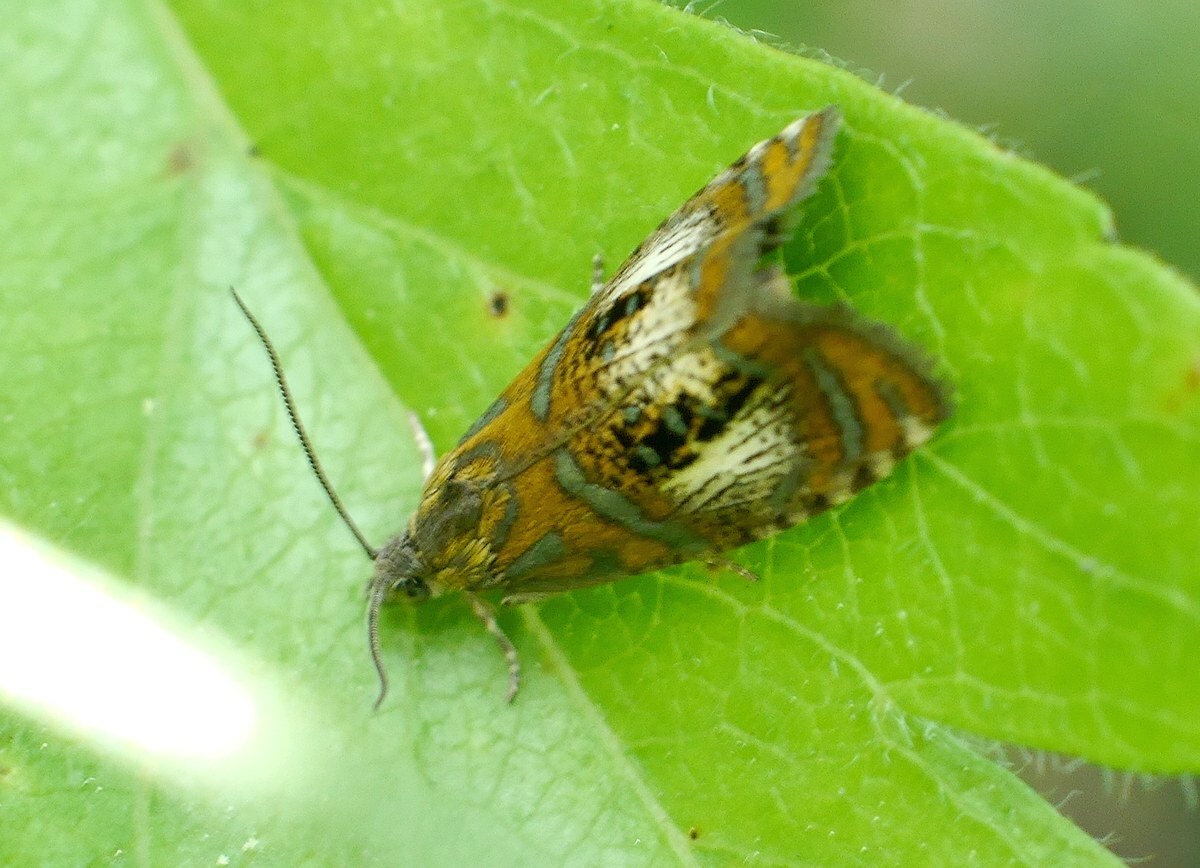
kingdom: Animalia
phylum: Arthropoda
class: Insecta
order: Lepidoptera
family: Tortricidae
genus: Olethreutes
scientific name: Olethreutes arcuella
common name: Arched marble
